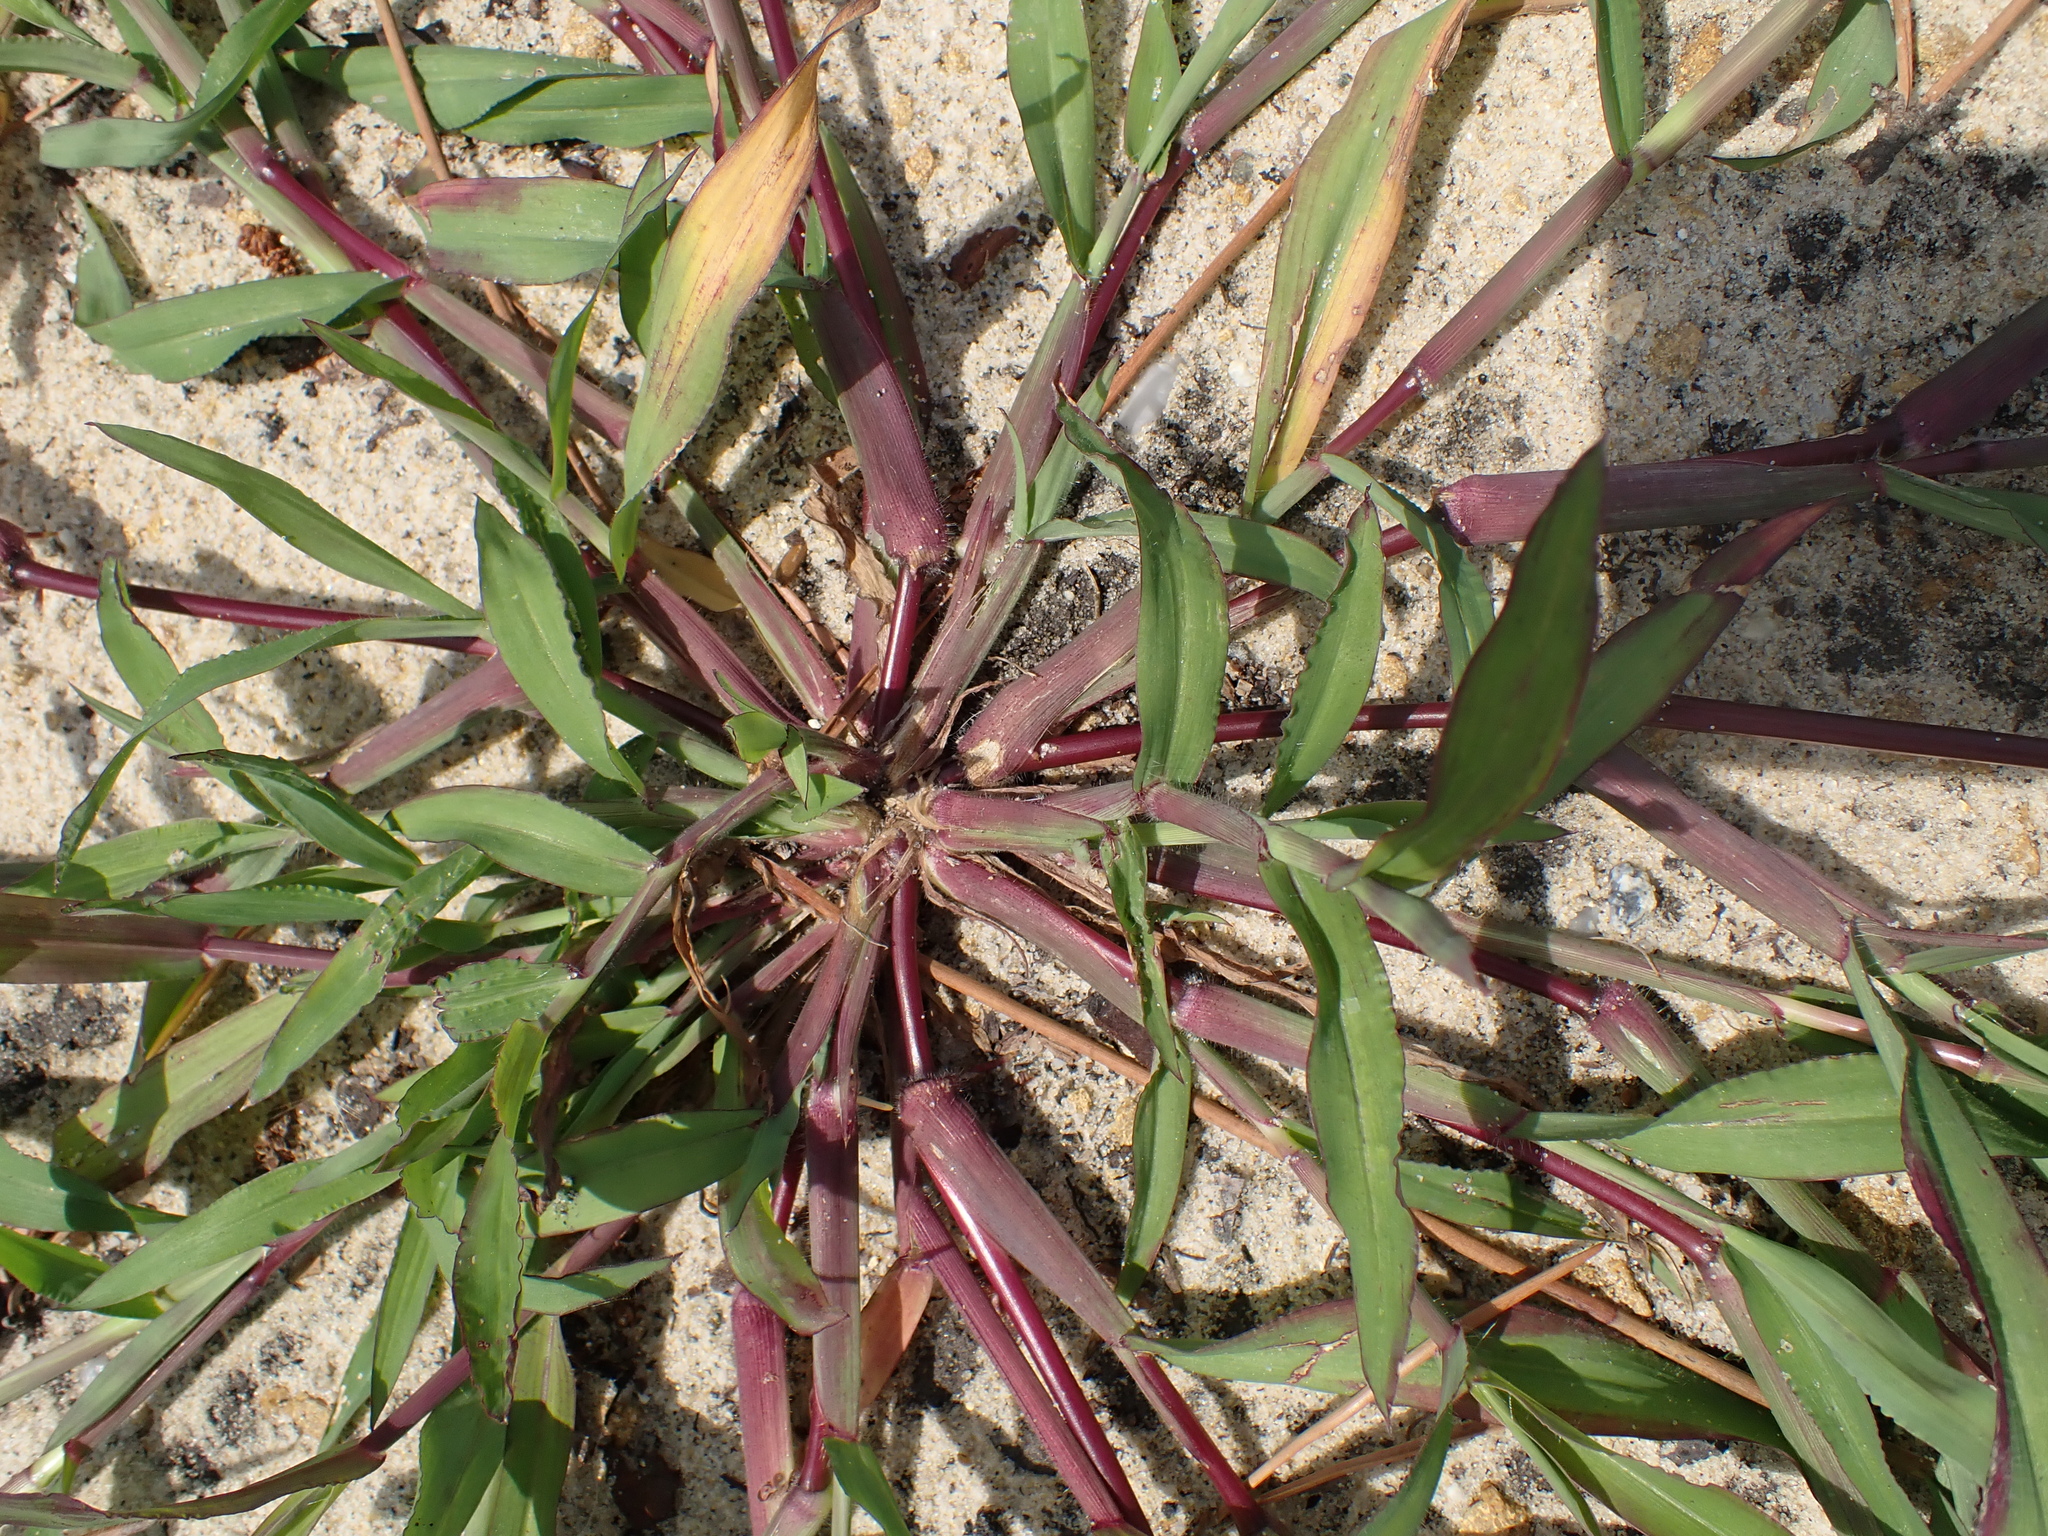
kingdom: Plantae
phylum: Tracheophyta
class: Liliopsida
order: Poales
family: Poaceae
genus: Digitaria
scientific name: Digitaria sanguinalis
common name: Hairy crabgrass
